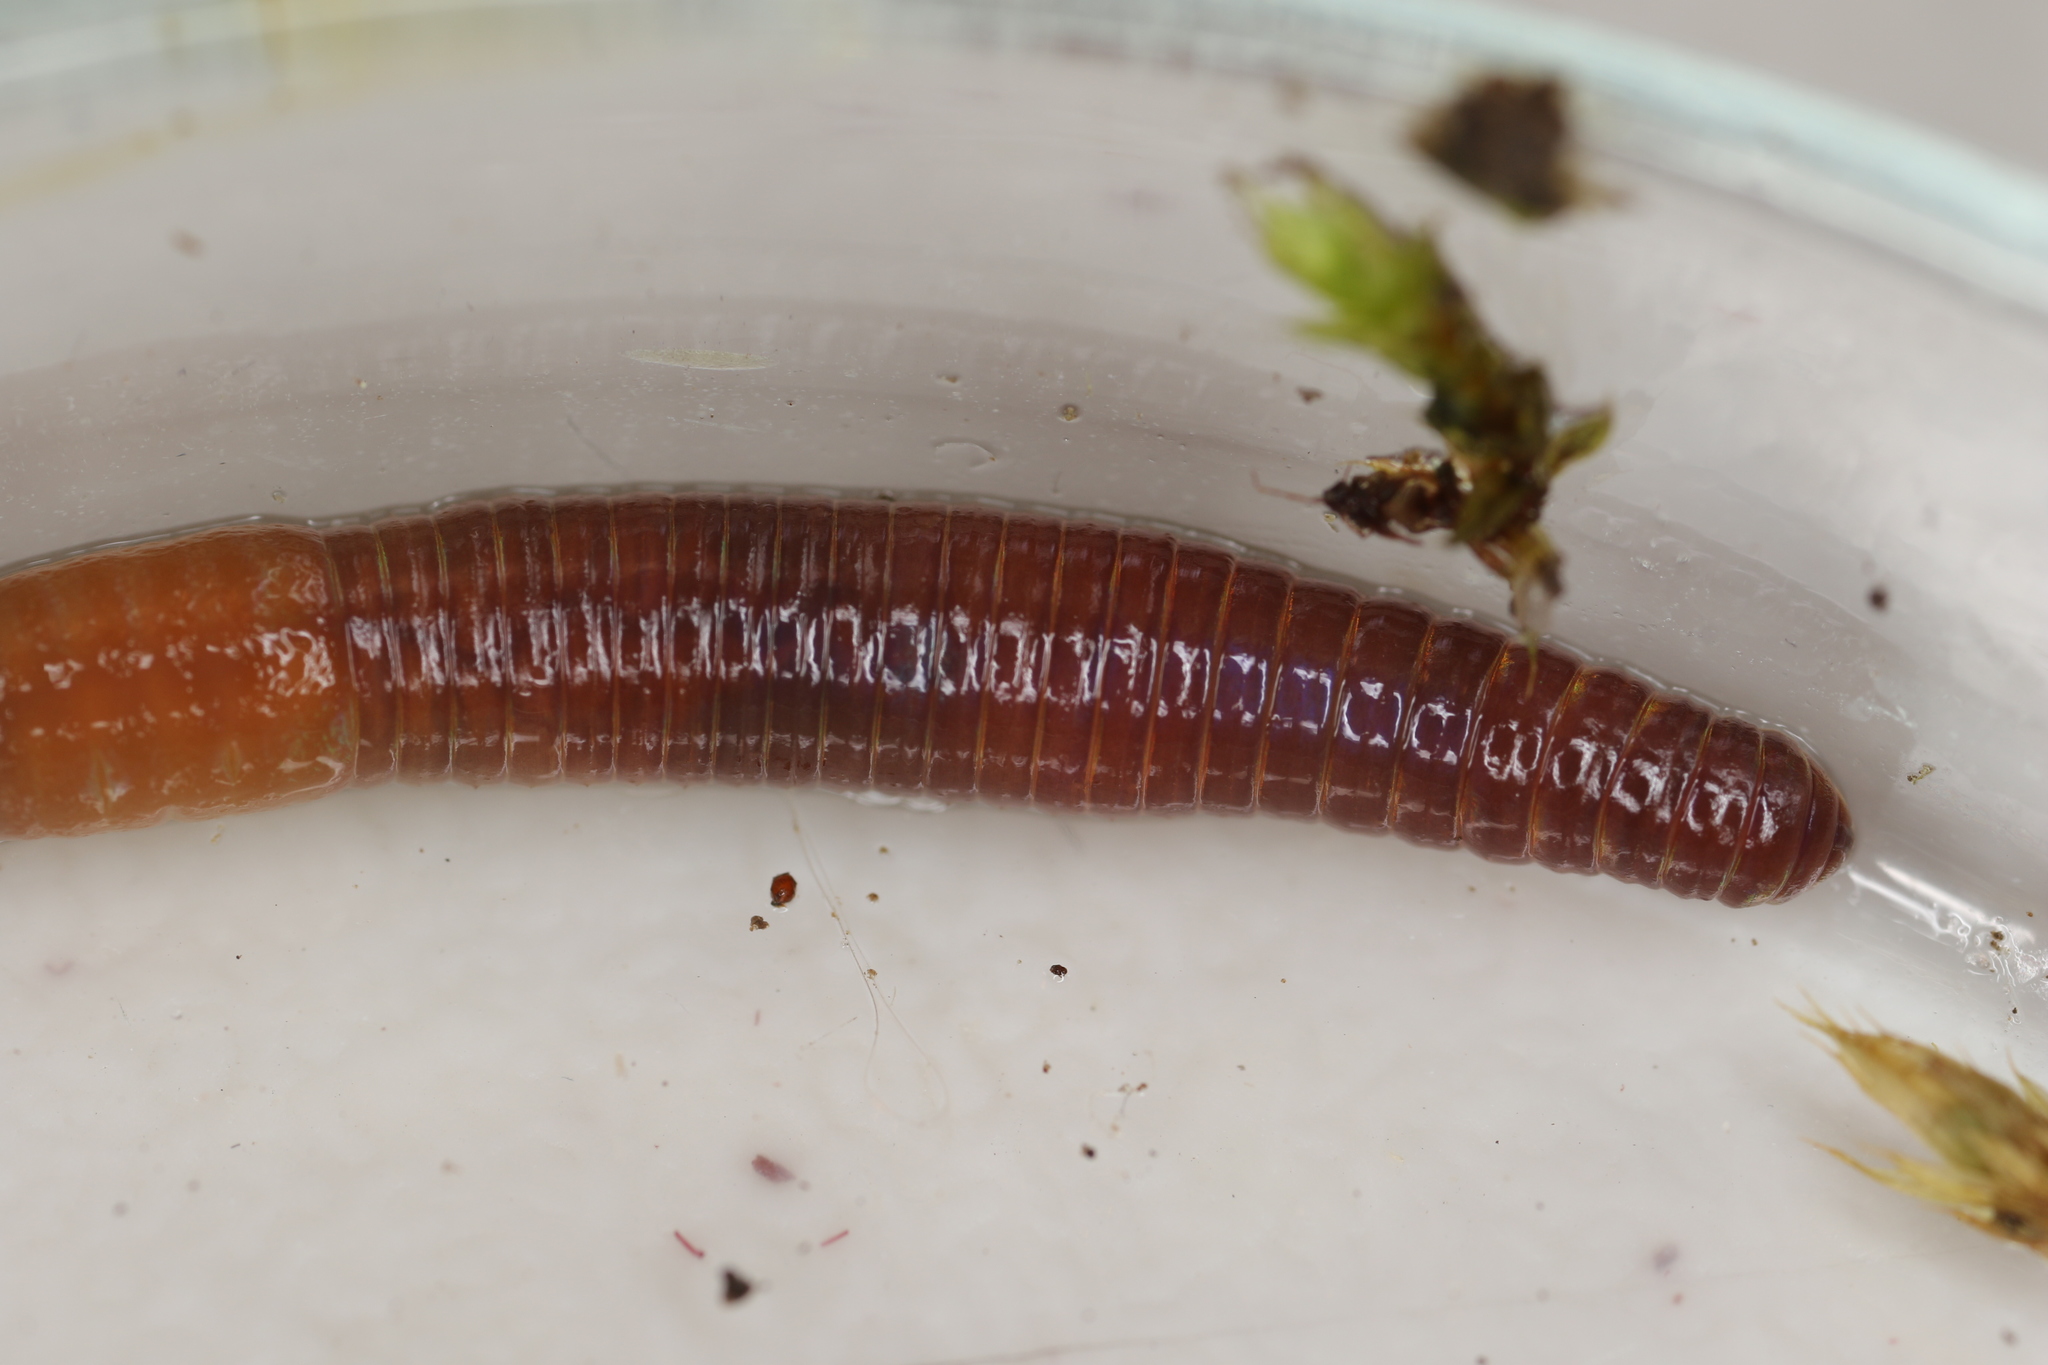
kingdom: Animalia
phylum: Annelida
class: Clitellata
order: Crassiclitellata
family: Lumbricidae
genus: Lumbricus
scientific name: Lumbricus rubellus
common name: Red worm
